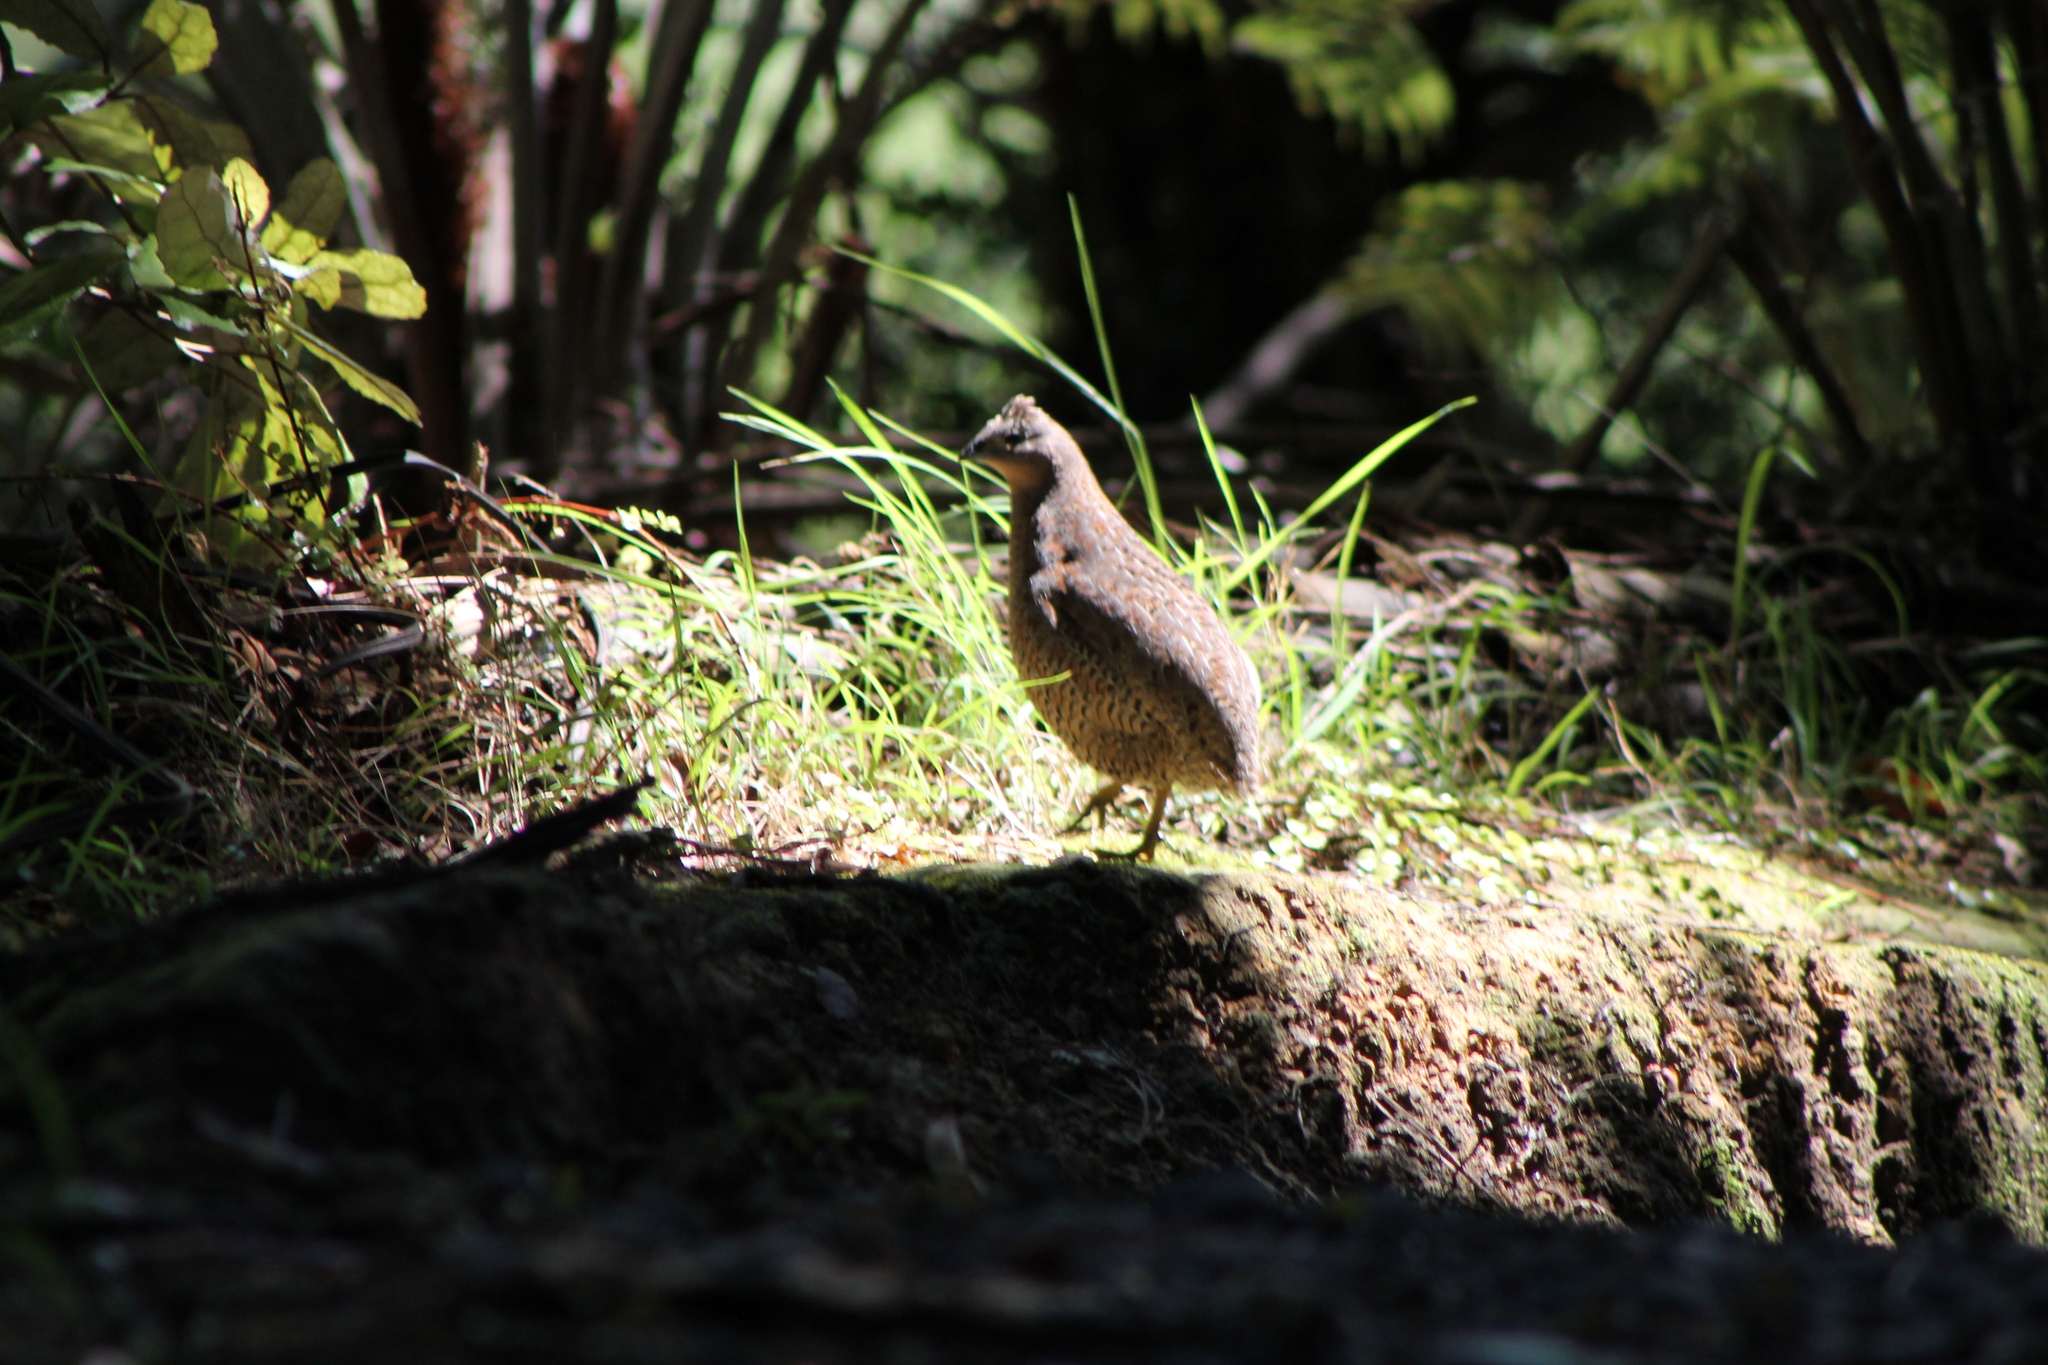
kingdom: Animalia
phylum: Chordata
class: Aves
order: Galliformes
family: Phasianidae
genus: Synoicus
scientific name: Synoicus ypsilophorus
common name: Brown quail
